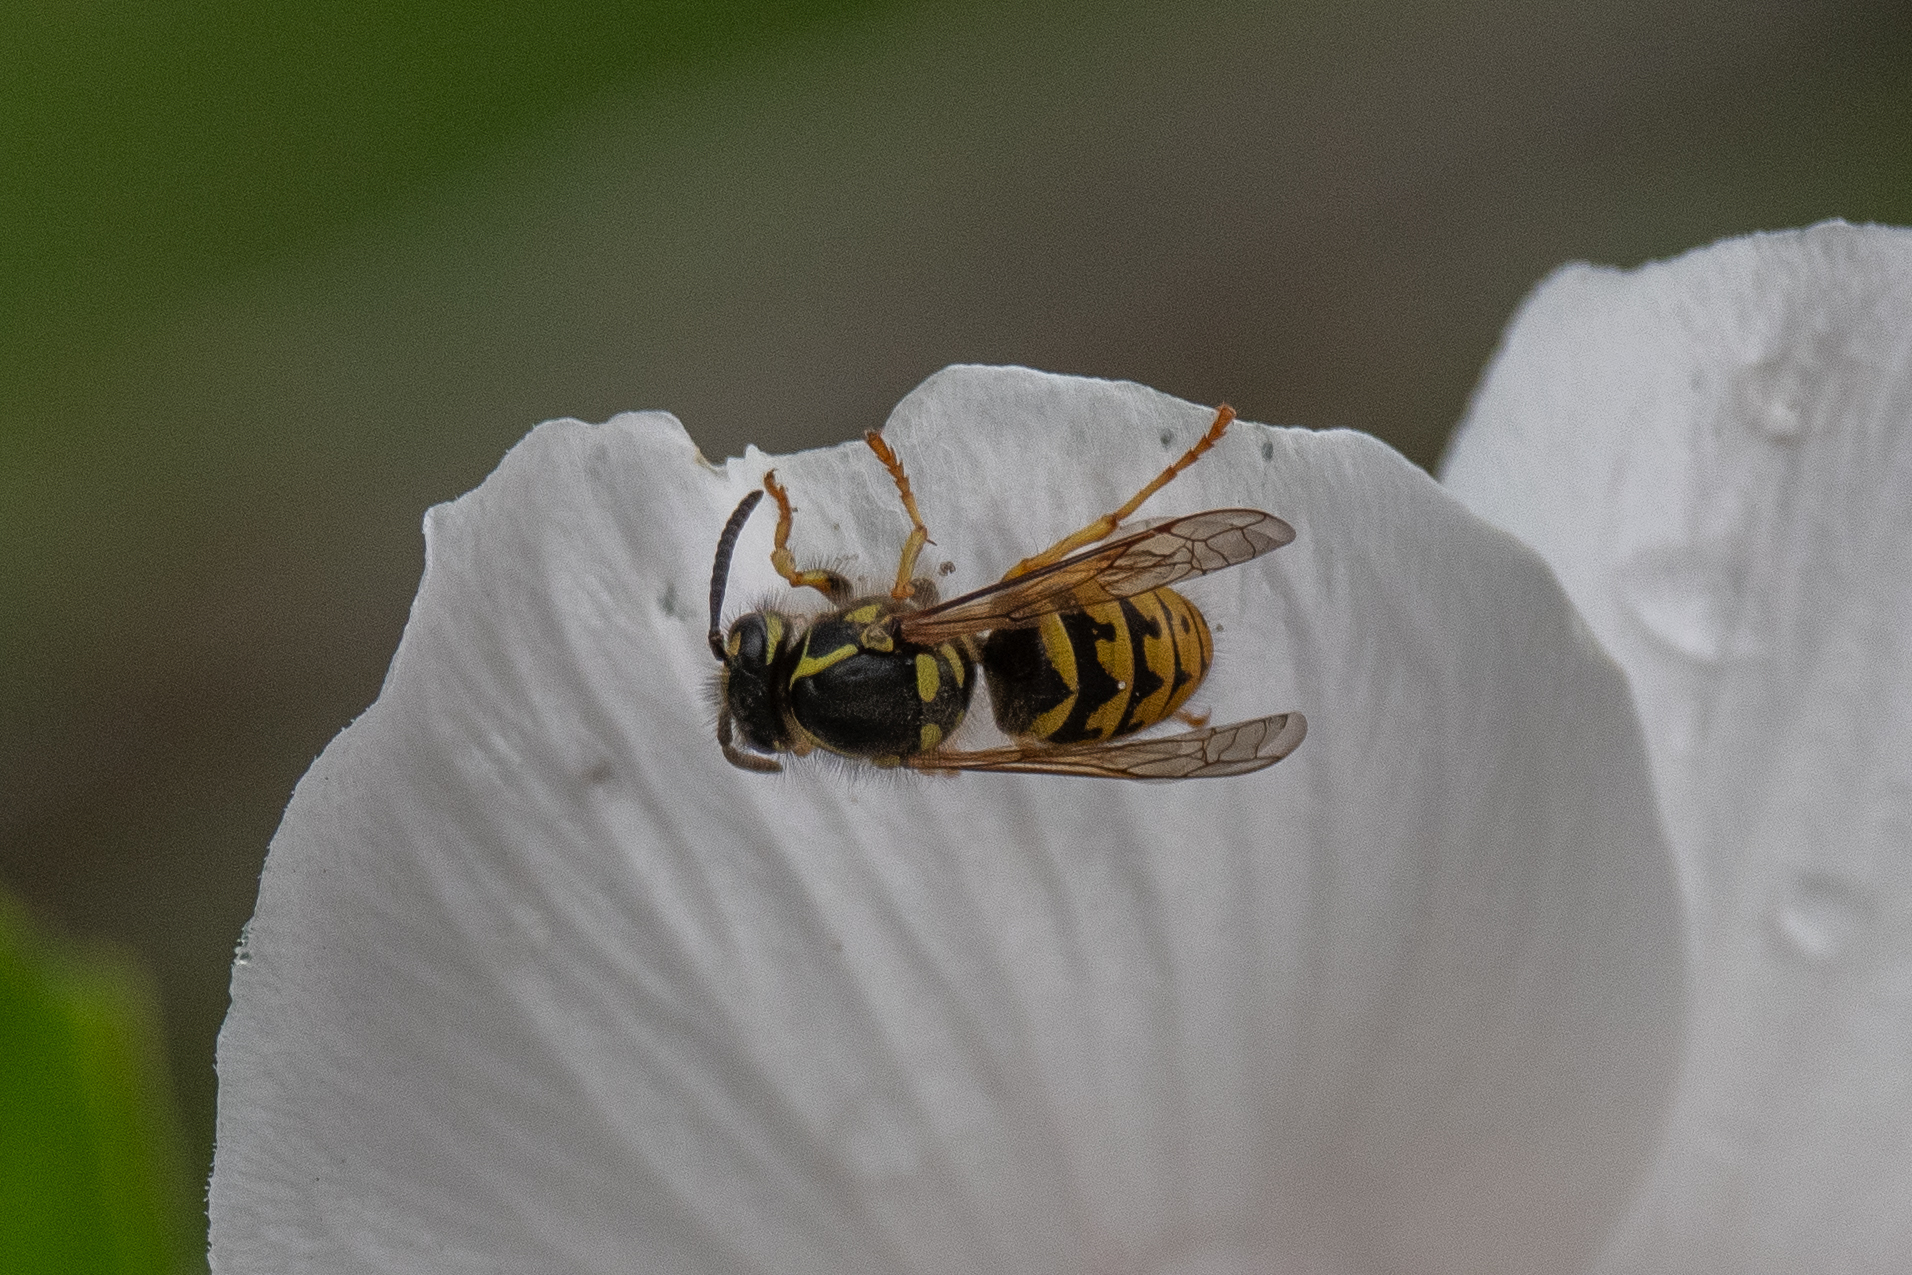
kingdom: Animalia
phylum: Arthropoda
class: Insecta
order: Hymenoptera
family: Vespidae
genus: Dolichovespula
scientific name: Dolichovespula arenaria
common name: Aerial yellowjacket
